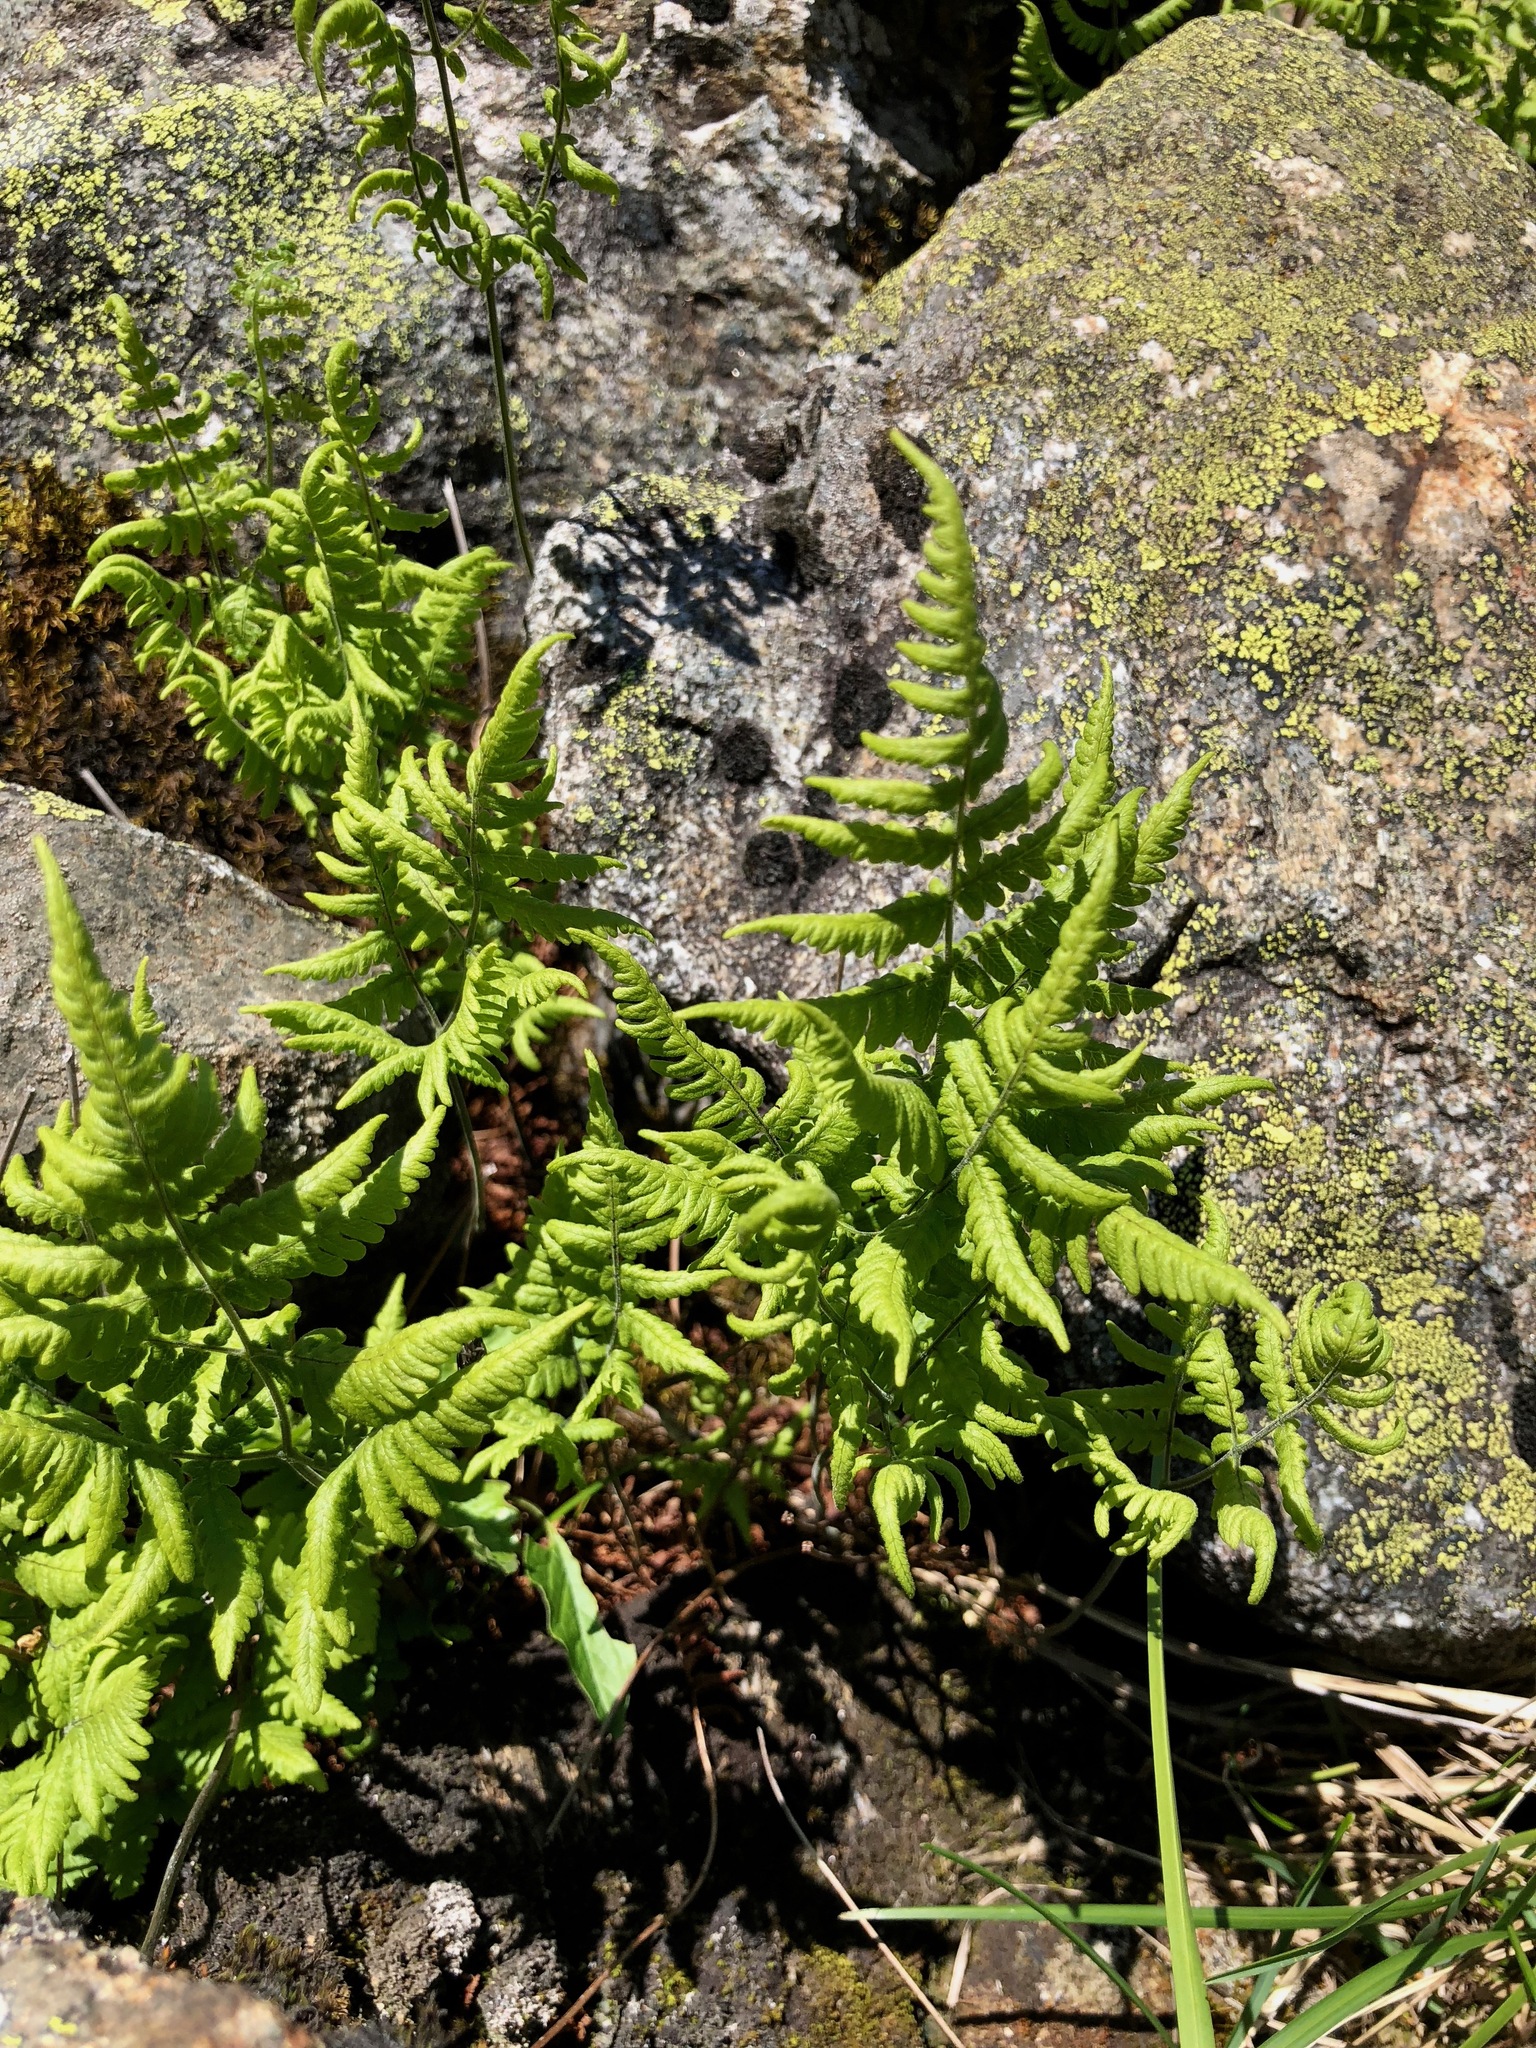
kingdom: Plantae
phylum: Tracheophyta
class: Polypodiopsida
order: Polypodiales
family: Cystopteridaceae
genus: Gymnocarpium
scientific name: Gymnocarpium robertianum
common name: Limestone fern
